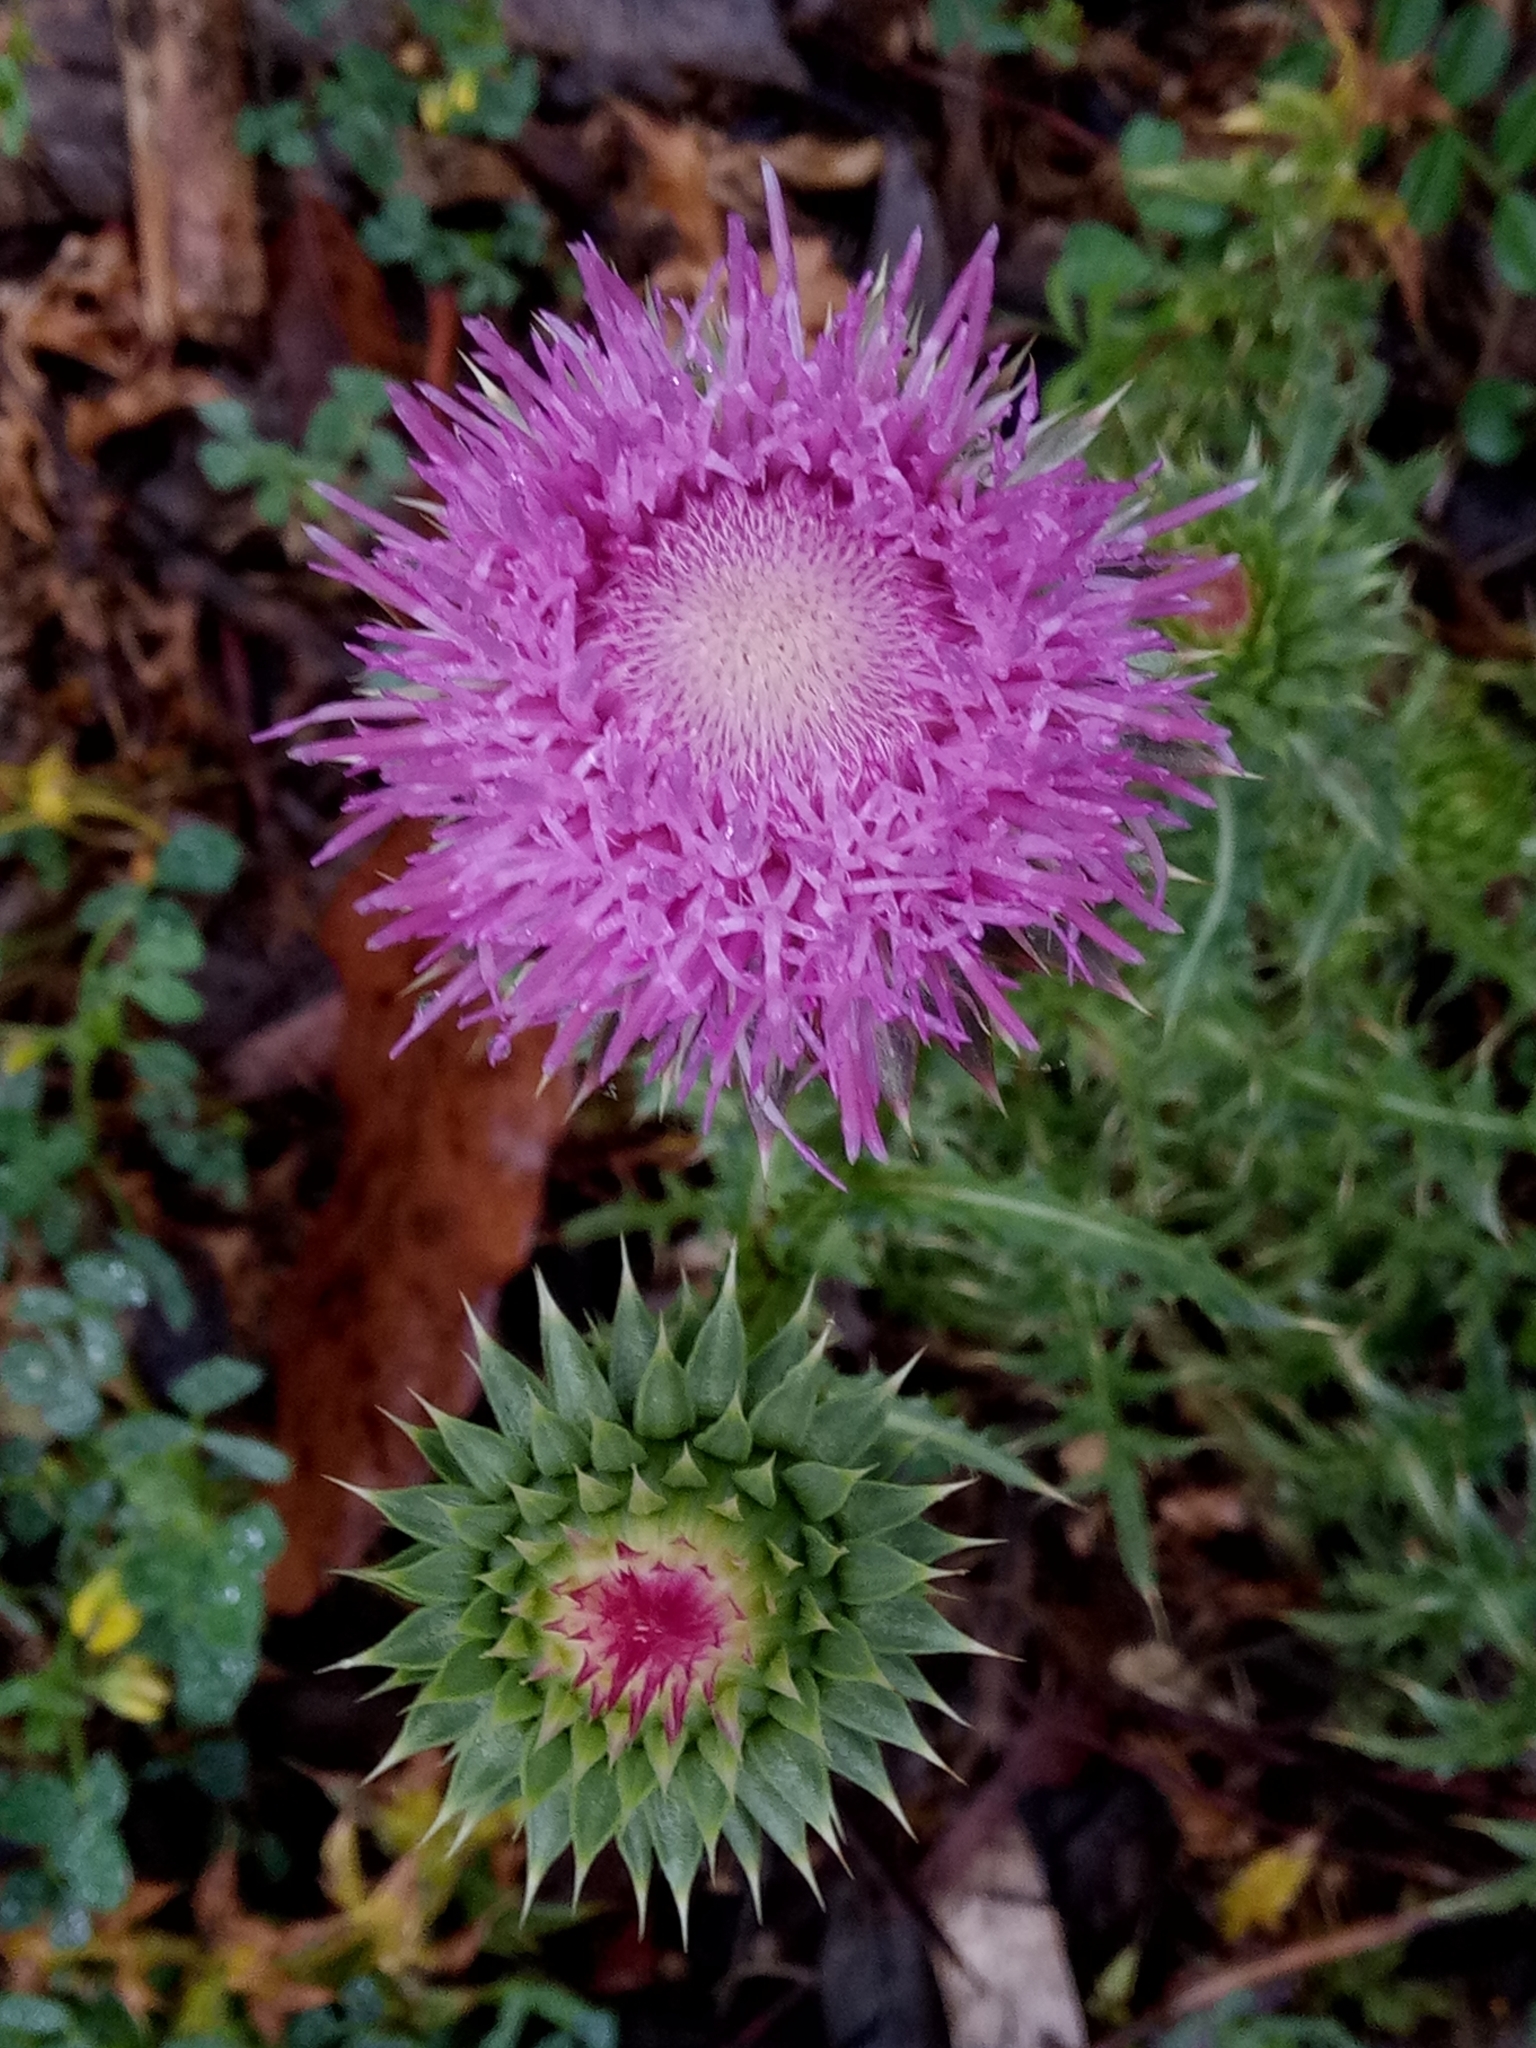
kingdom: Plantae
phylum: Tracheophyta
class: Magnoliopsida
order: Asterales
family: Asteraceae
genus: Carduus
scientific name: Carduus macrocephalus
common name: Giant thistle
